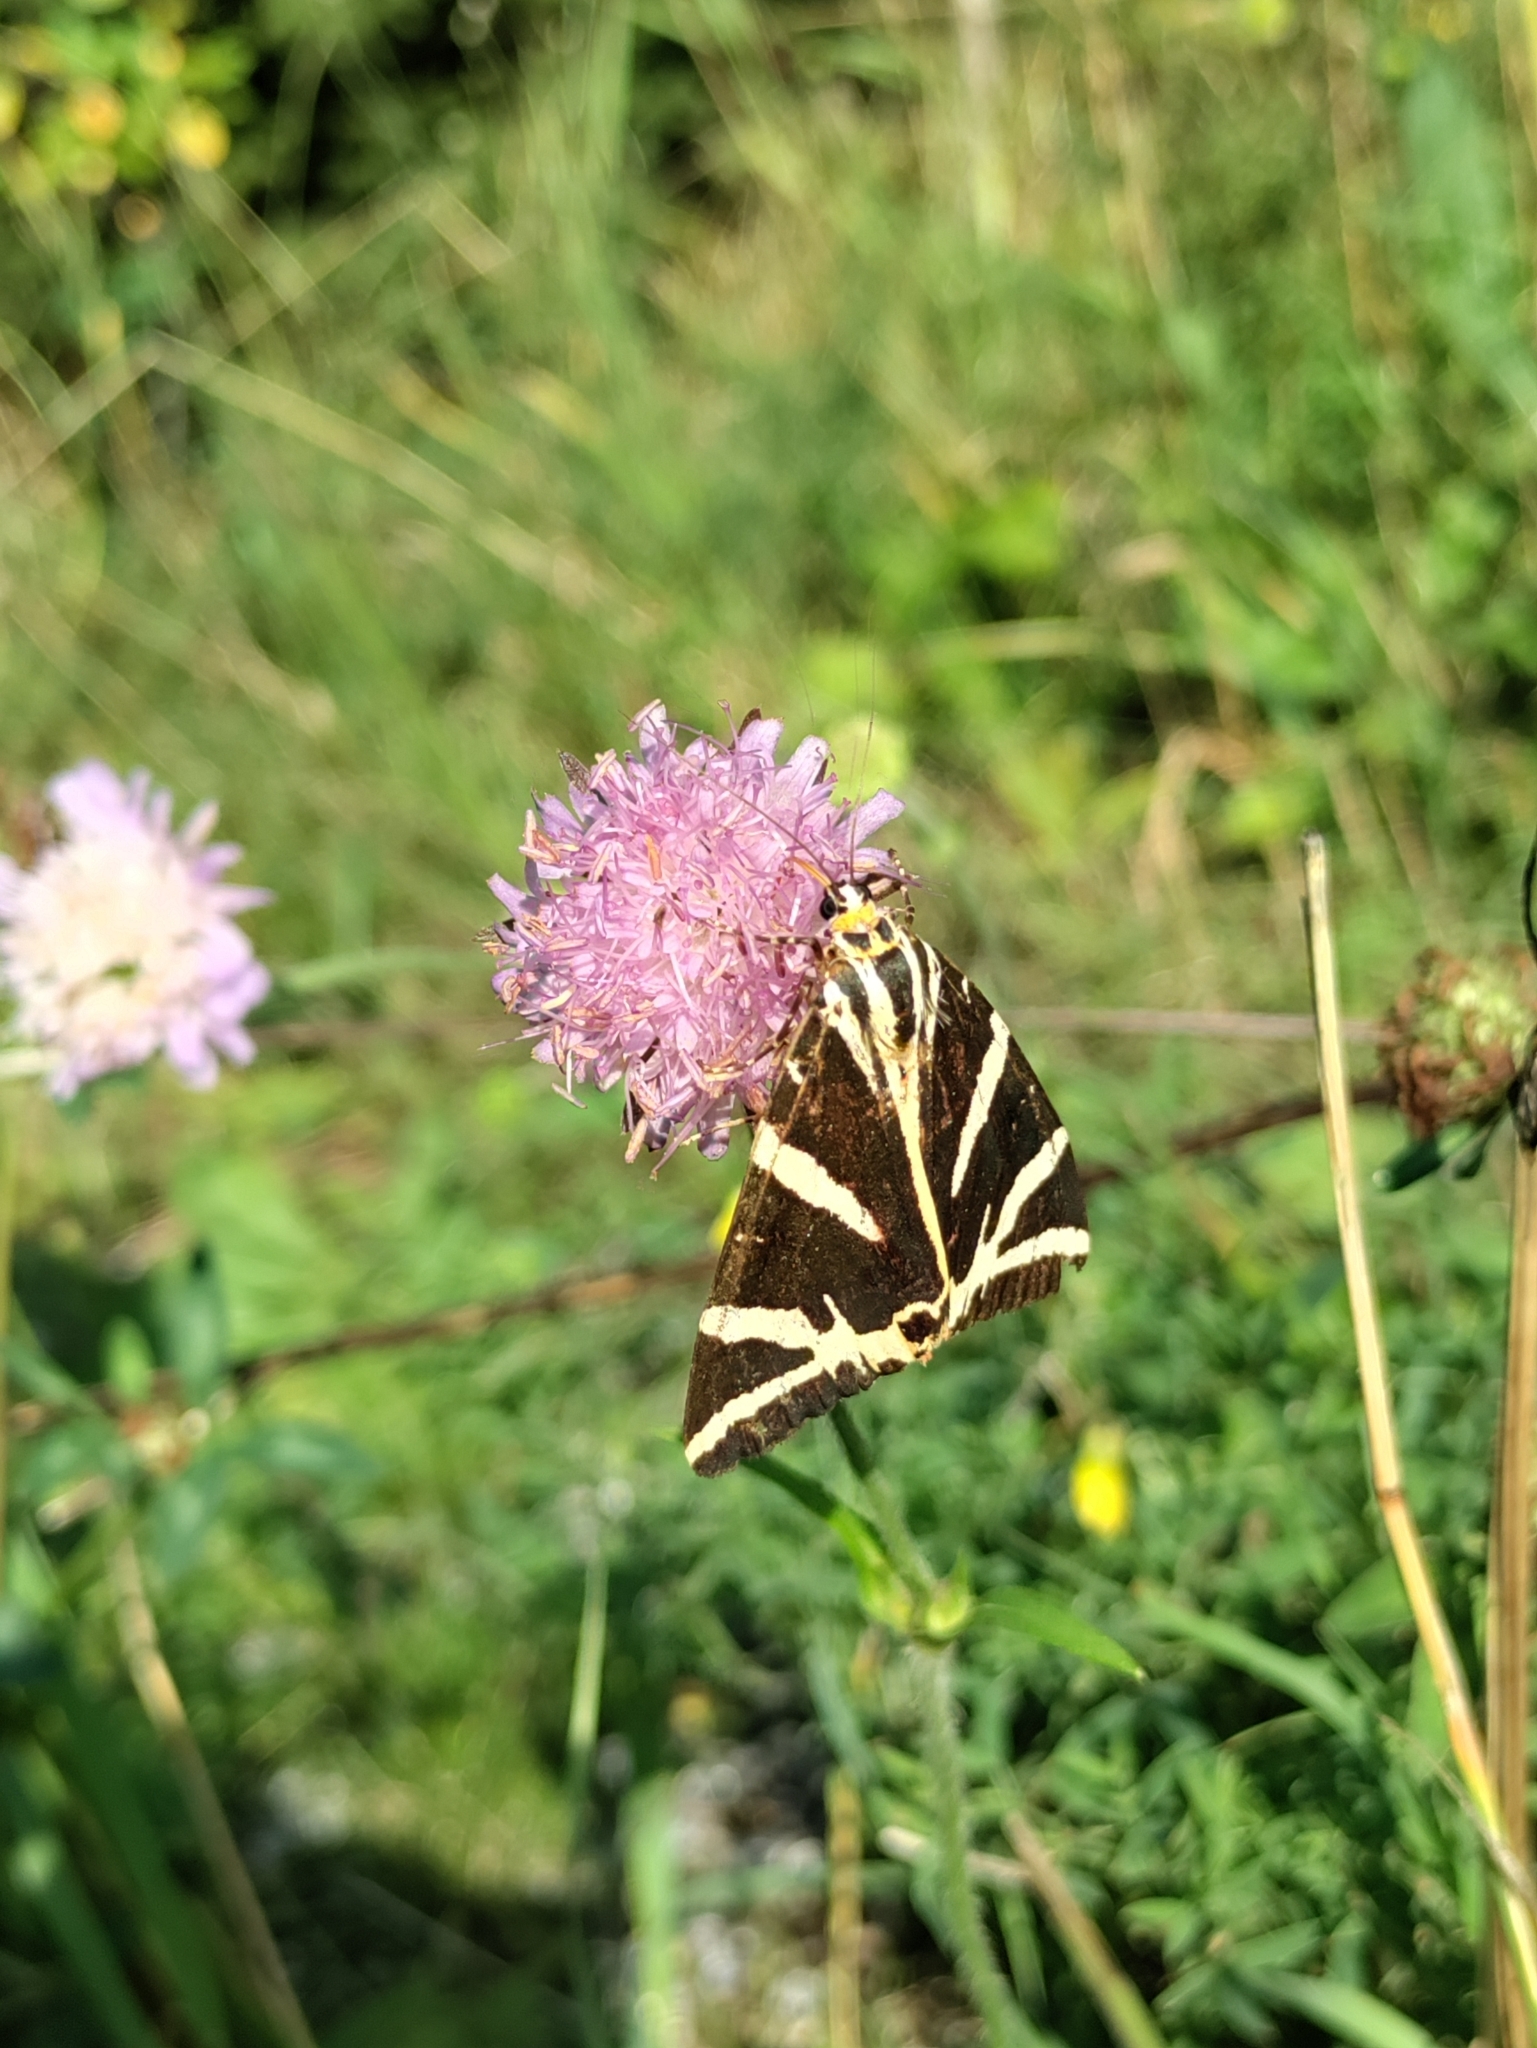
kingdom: Animalia
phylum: Arthropoda
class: Insecta
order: Lepidoptera
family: Erebidae
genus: Euplagia
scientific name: Euplagia quadripunctaria
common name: Jersey tiger
